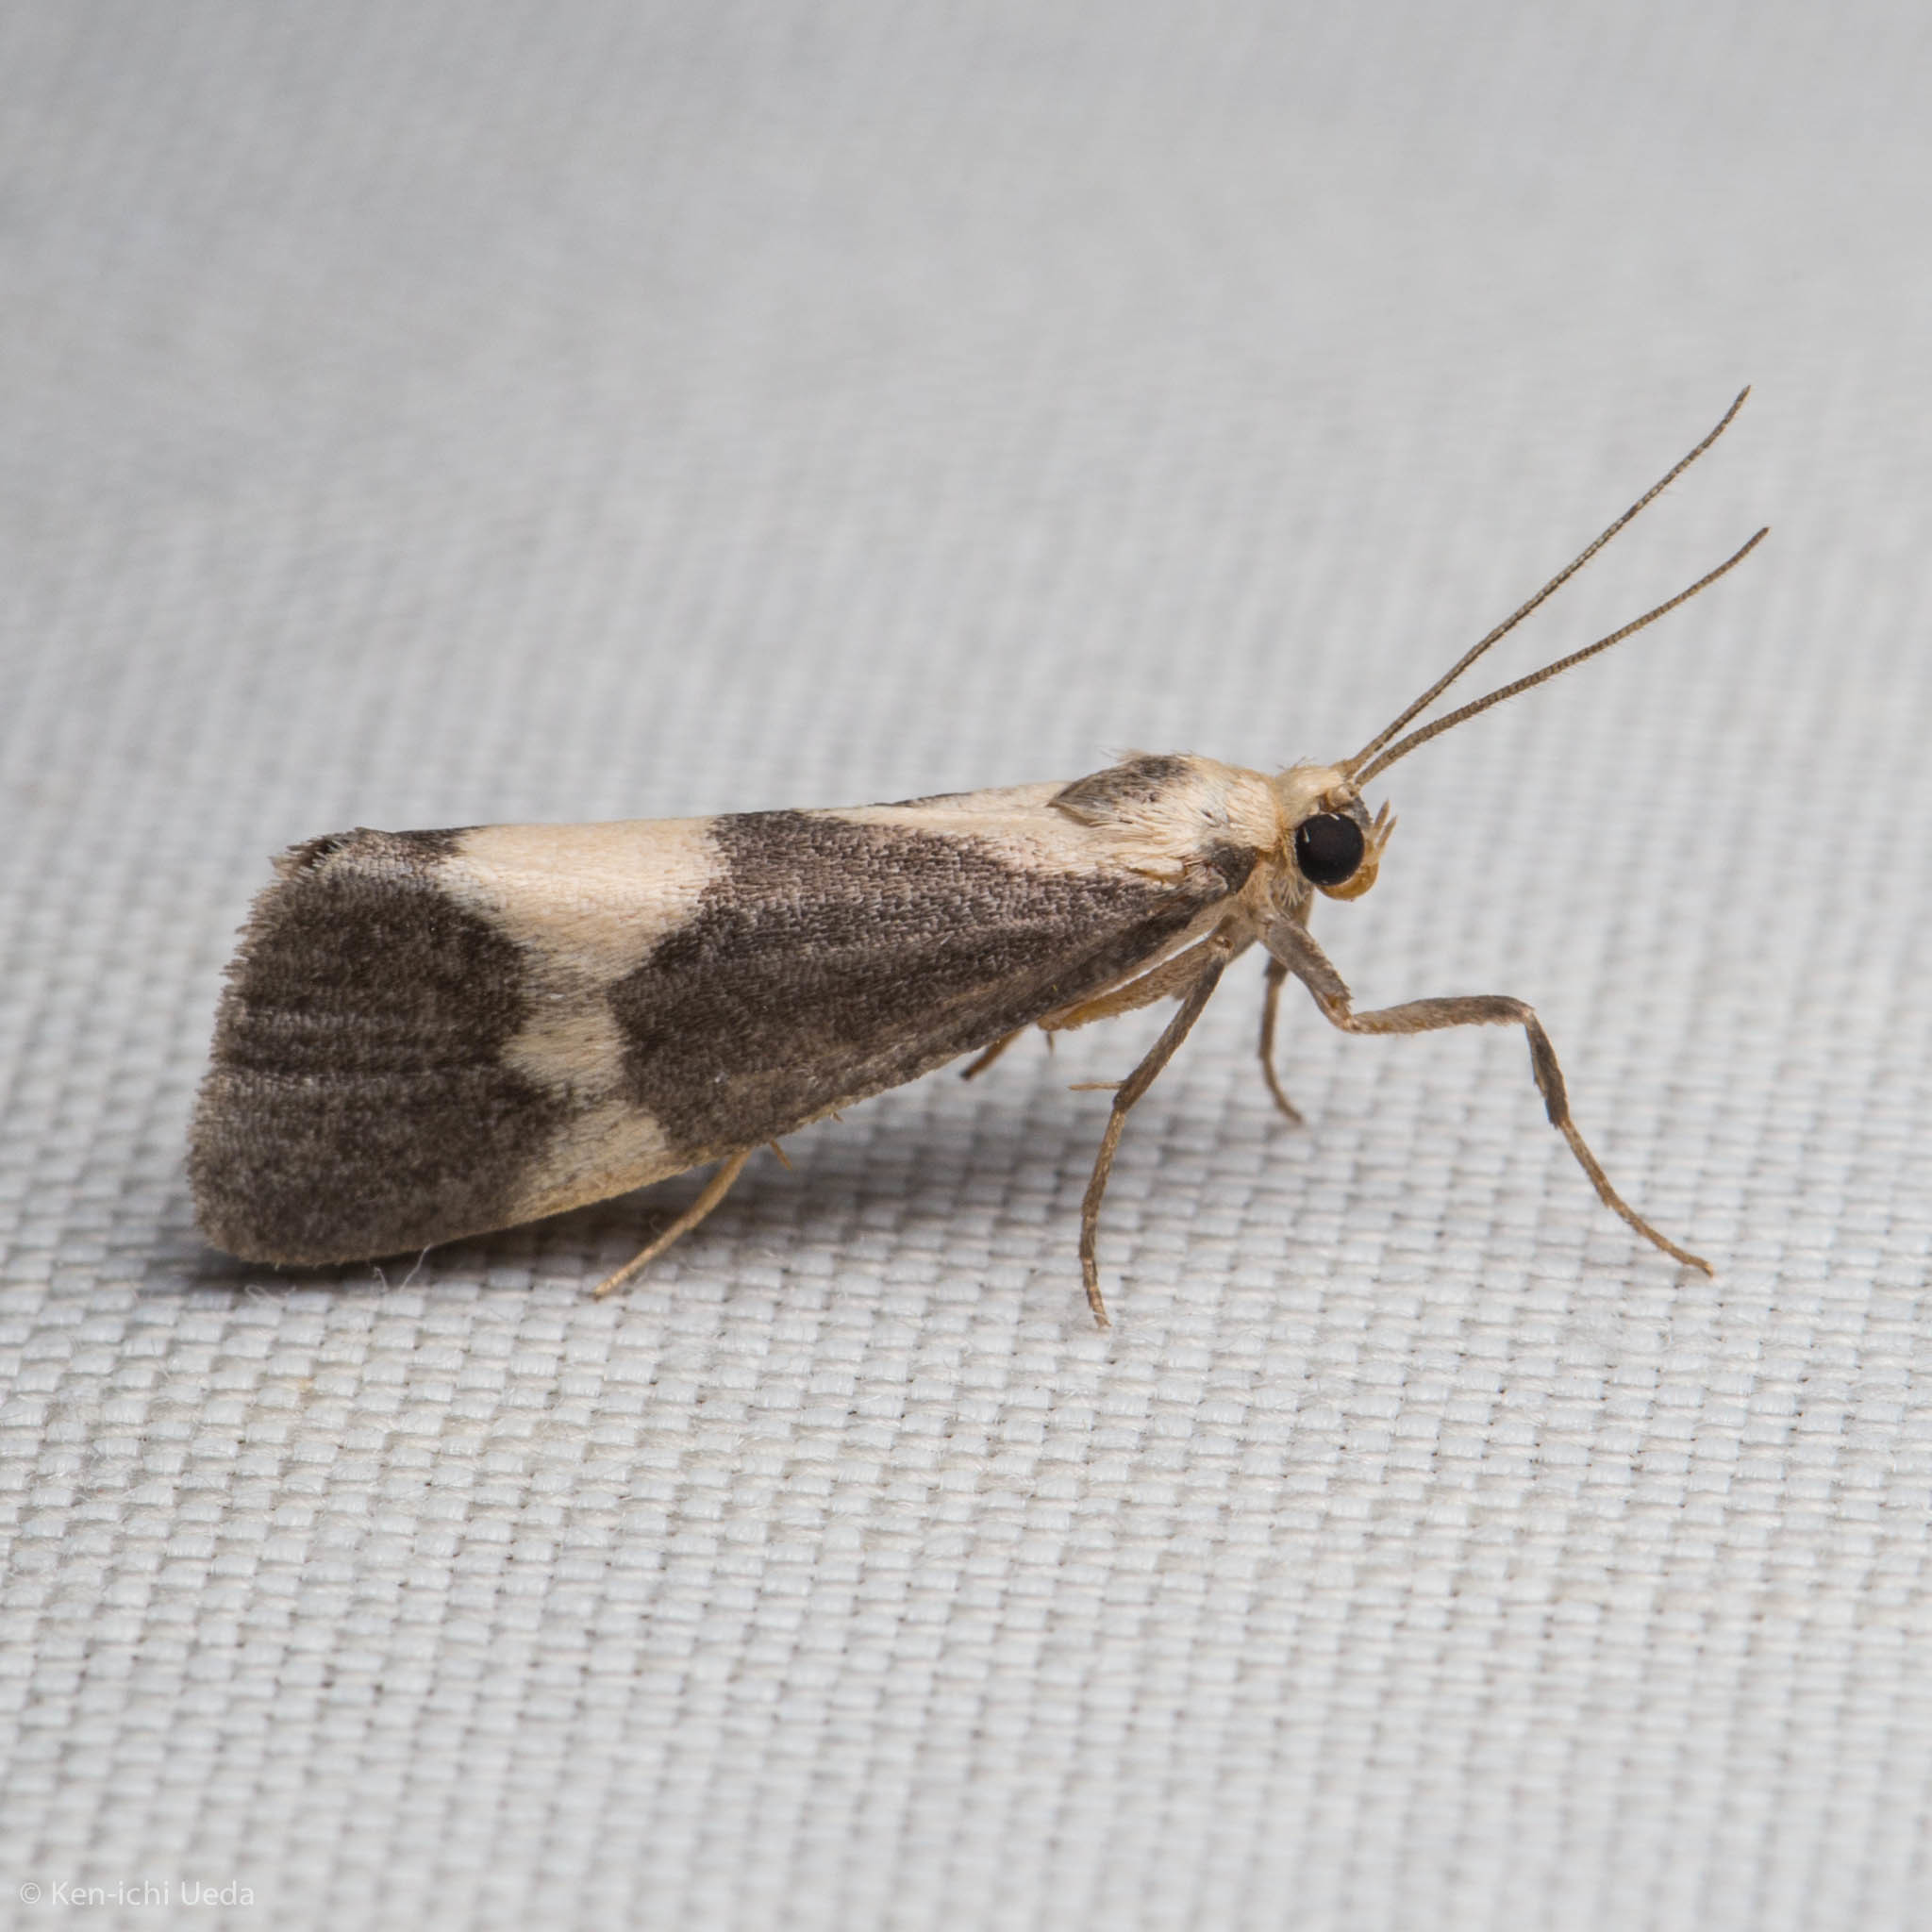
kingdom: Animalia
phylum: Arthropoda
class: Insecta
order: Lepidoptera
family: Erebidae
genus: Cisthene
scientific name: Cisthene faustinula
